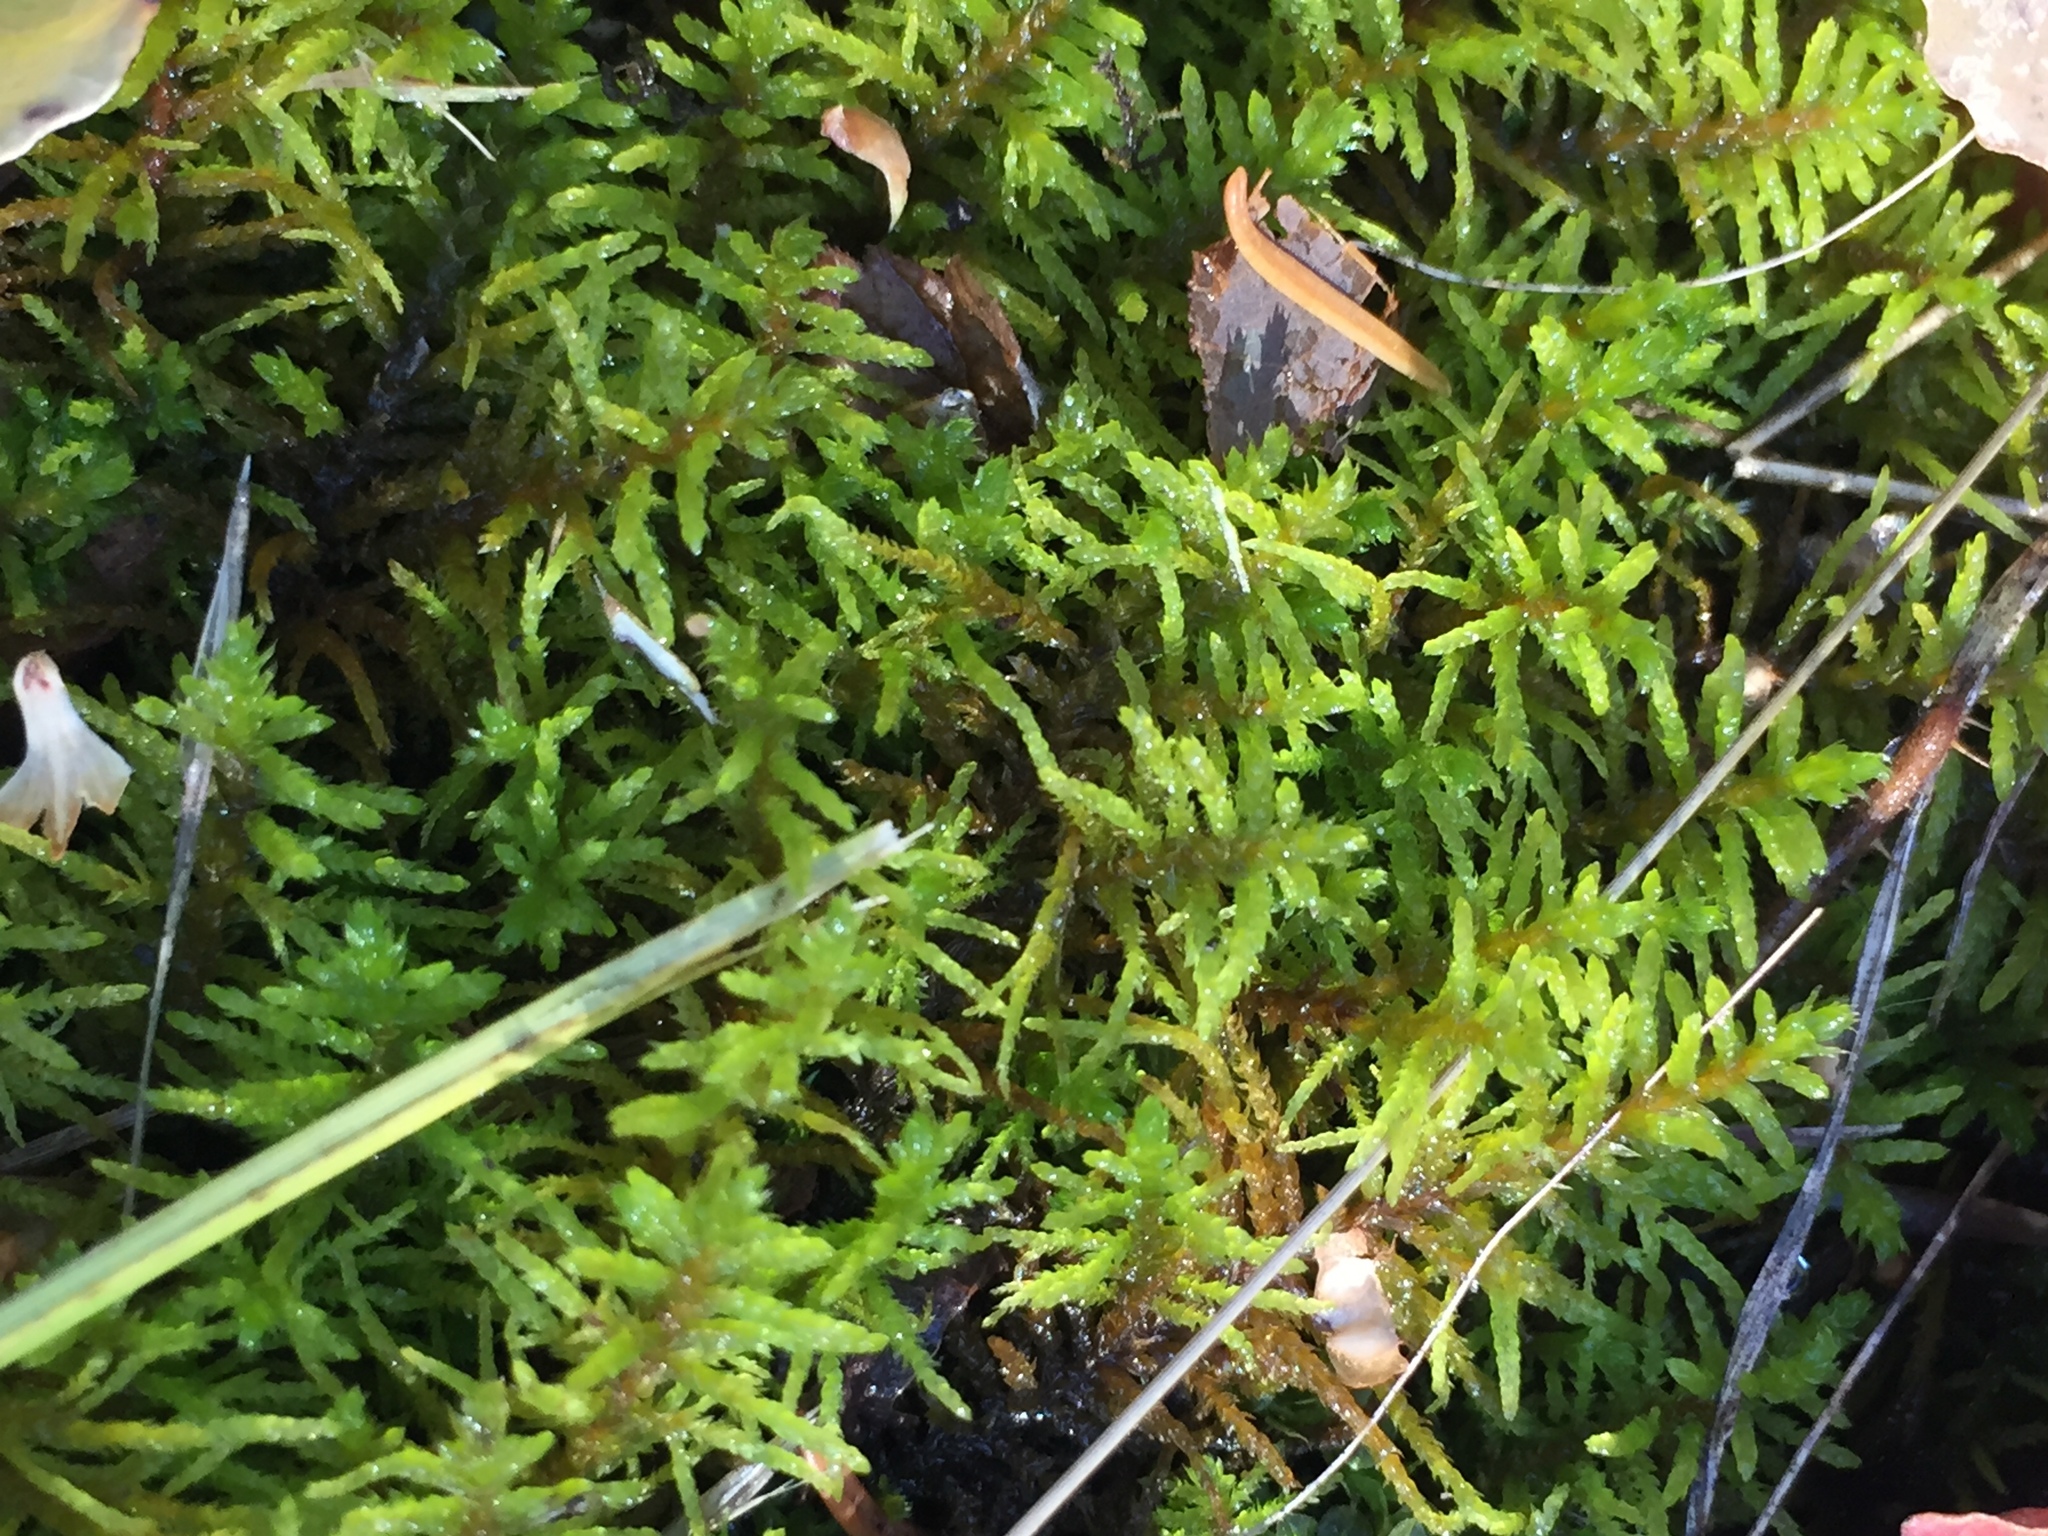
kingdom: Plantae
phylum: Bryophyta
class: Bryopsida
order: Hypnales
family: Hylocomiaceae
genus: Pleurozium
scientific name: Pleurozium schreberi
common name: Red-stemmed feather moss
